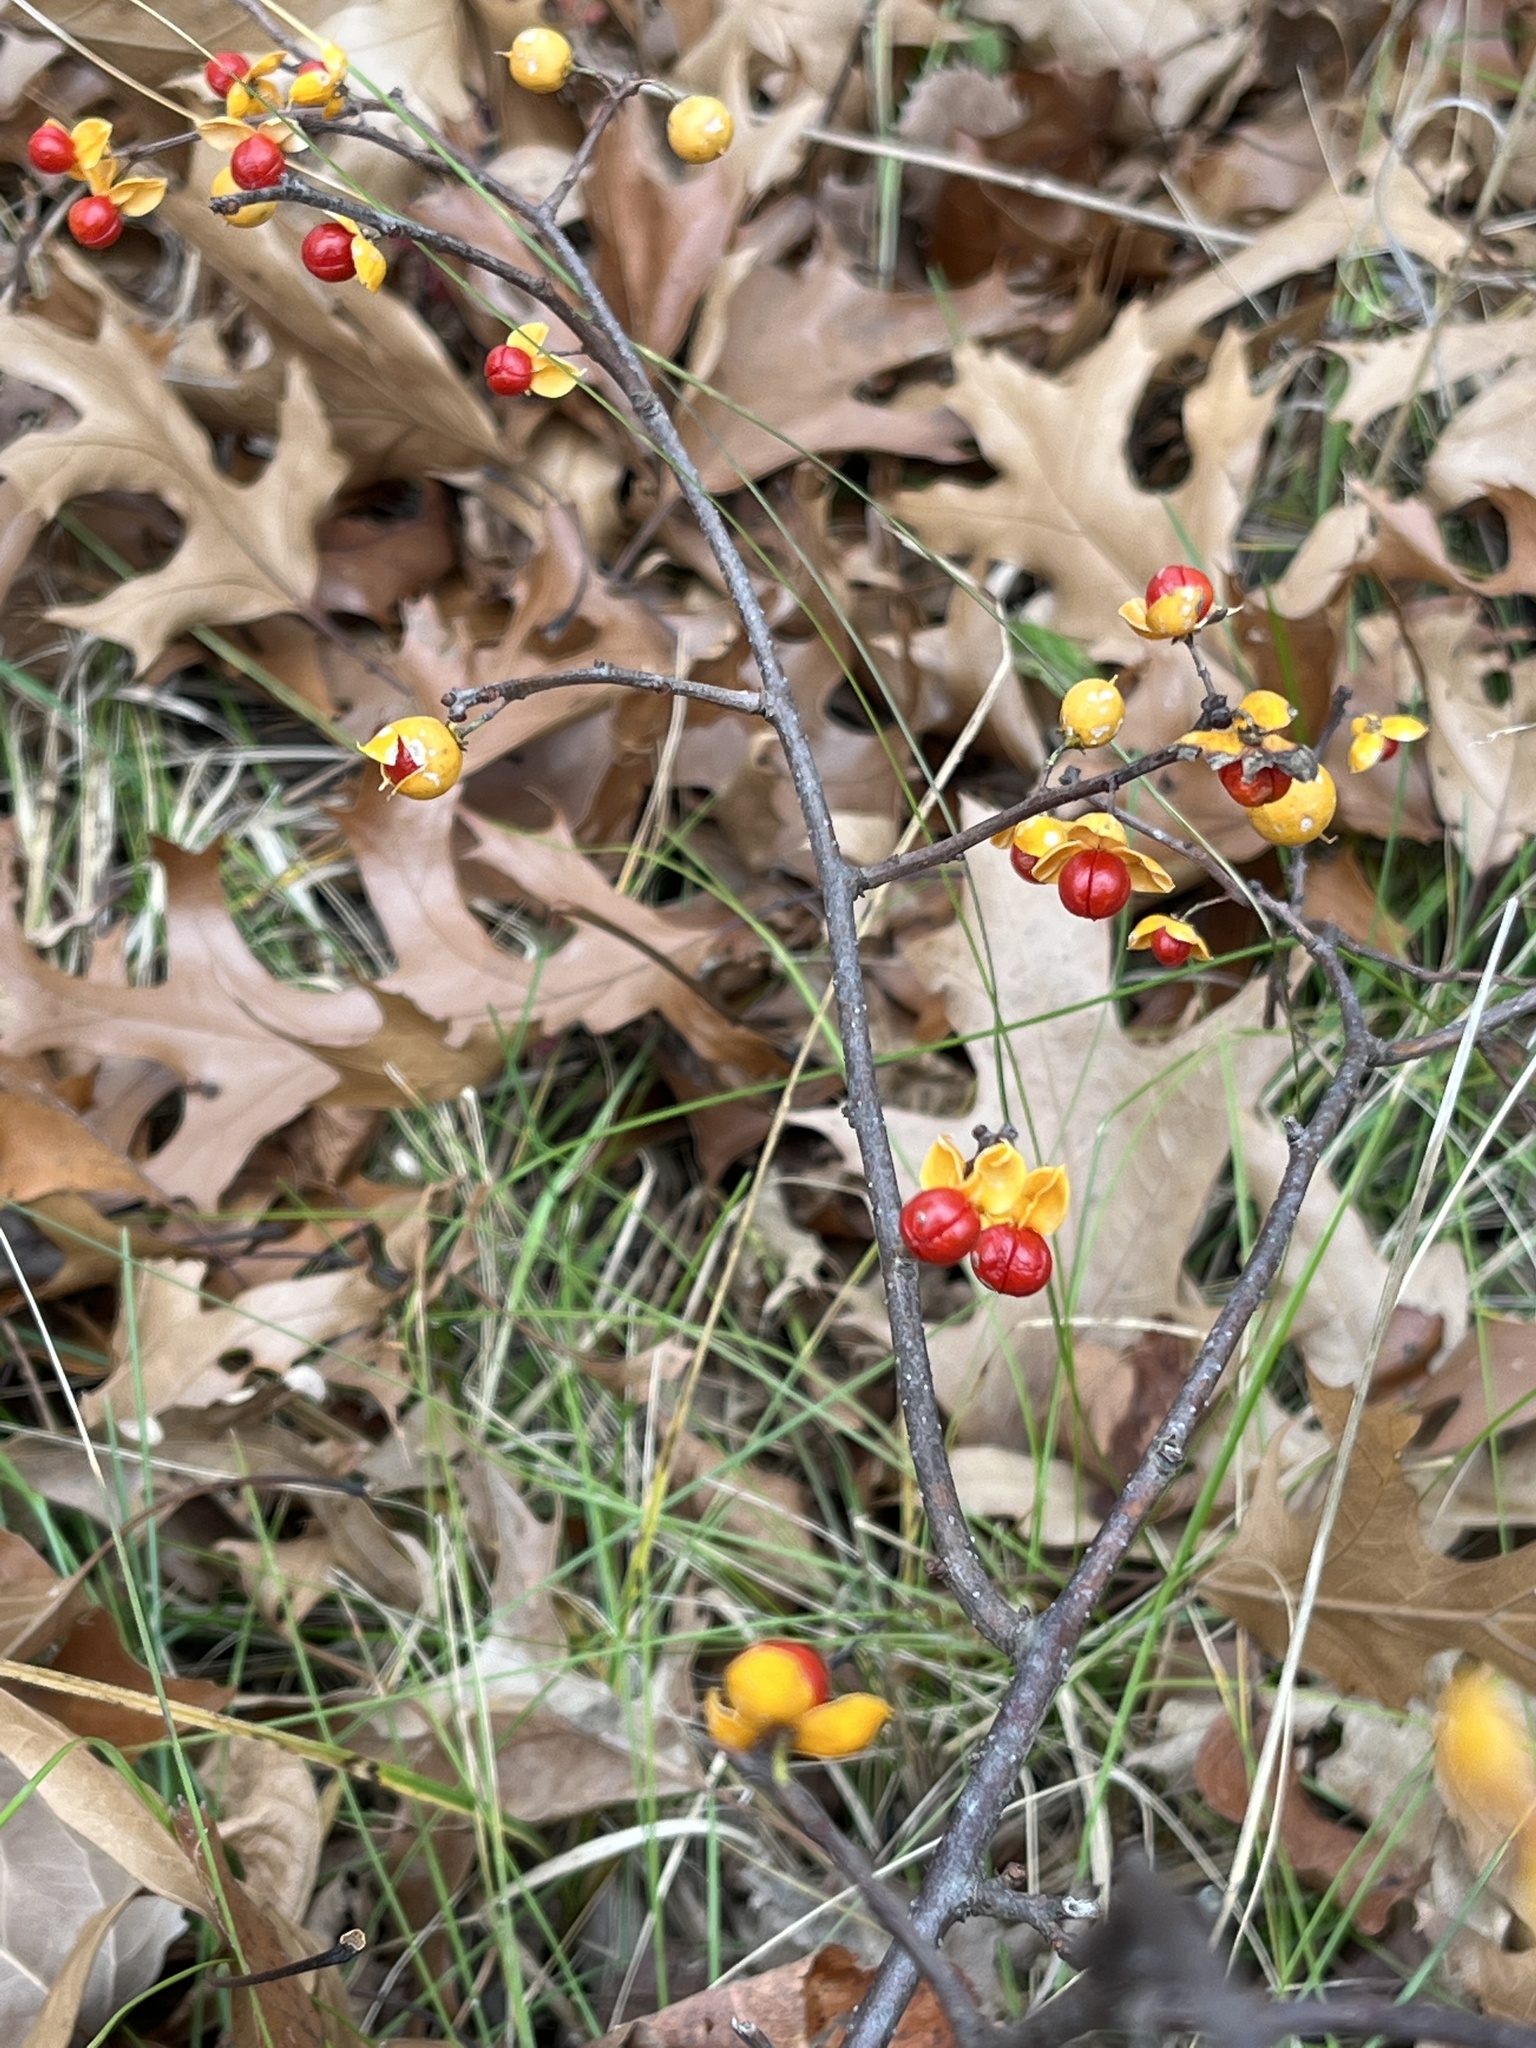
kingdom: Plantae
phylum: Tracheophyta
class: Magnoliopsida
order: Celastrales
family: Celastraceae
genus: Celastrus
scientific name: Celastrus orbiculatus
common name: Oriental bittersweet
